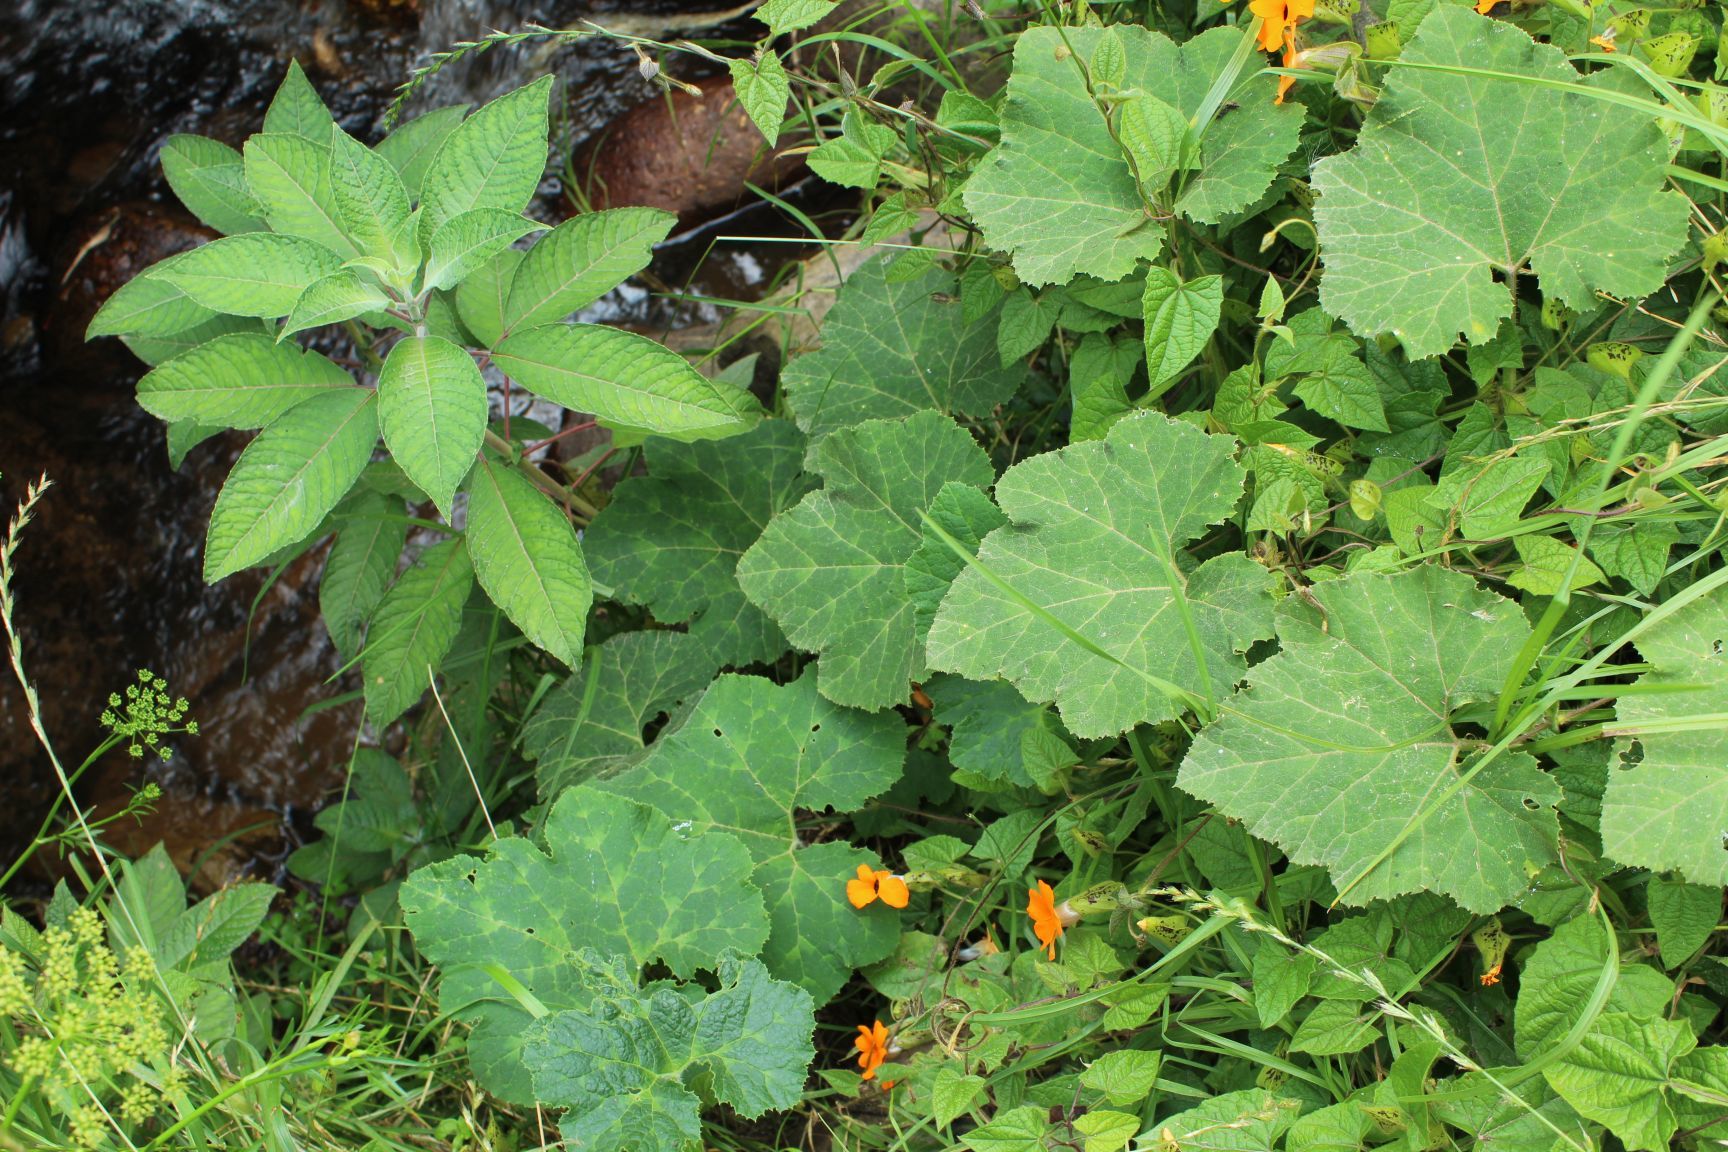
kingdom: Plantae
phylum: Tracheophyta
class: Magnoliopsida
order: Cucurbitales
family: Cucurbitaceae
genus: Cucurbita
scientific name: Cucurbita moschata
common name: Squash / pumpkin
